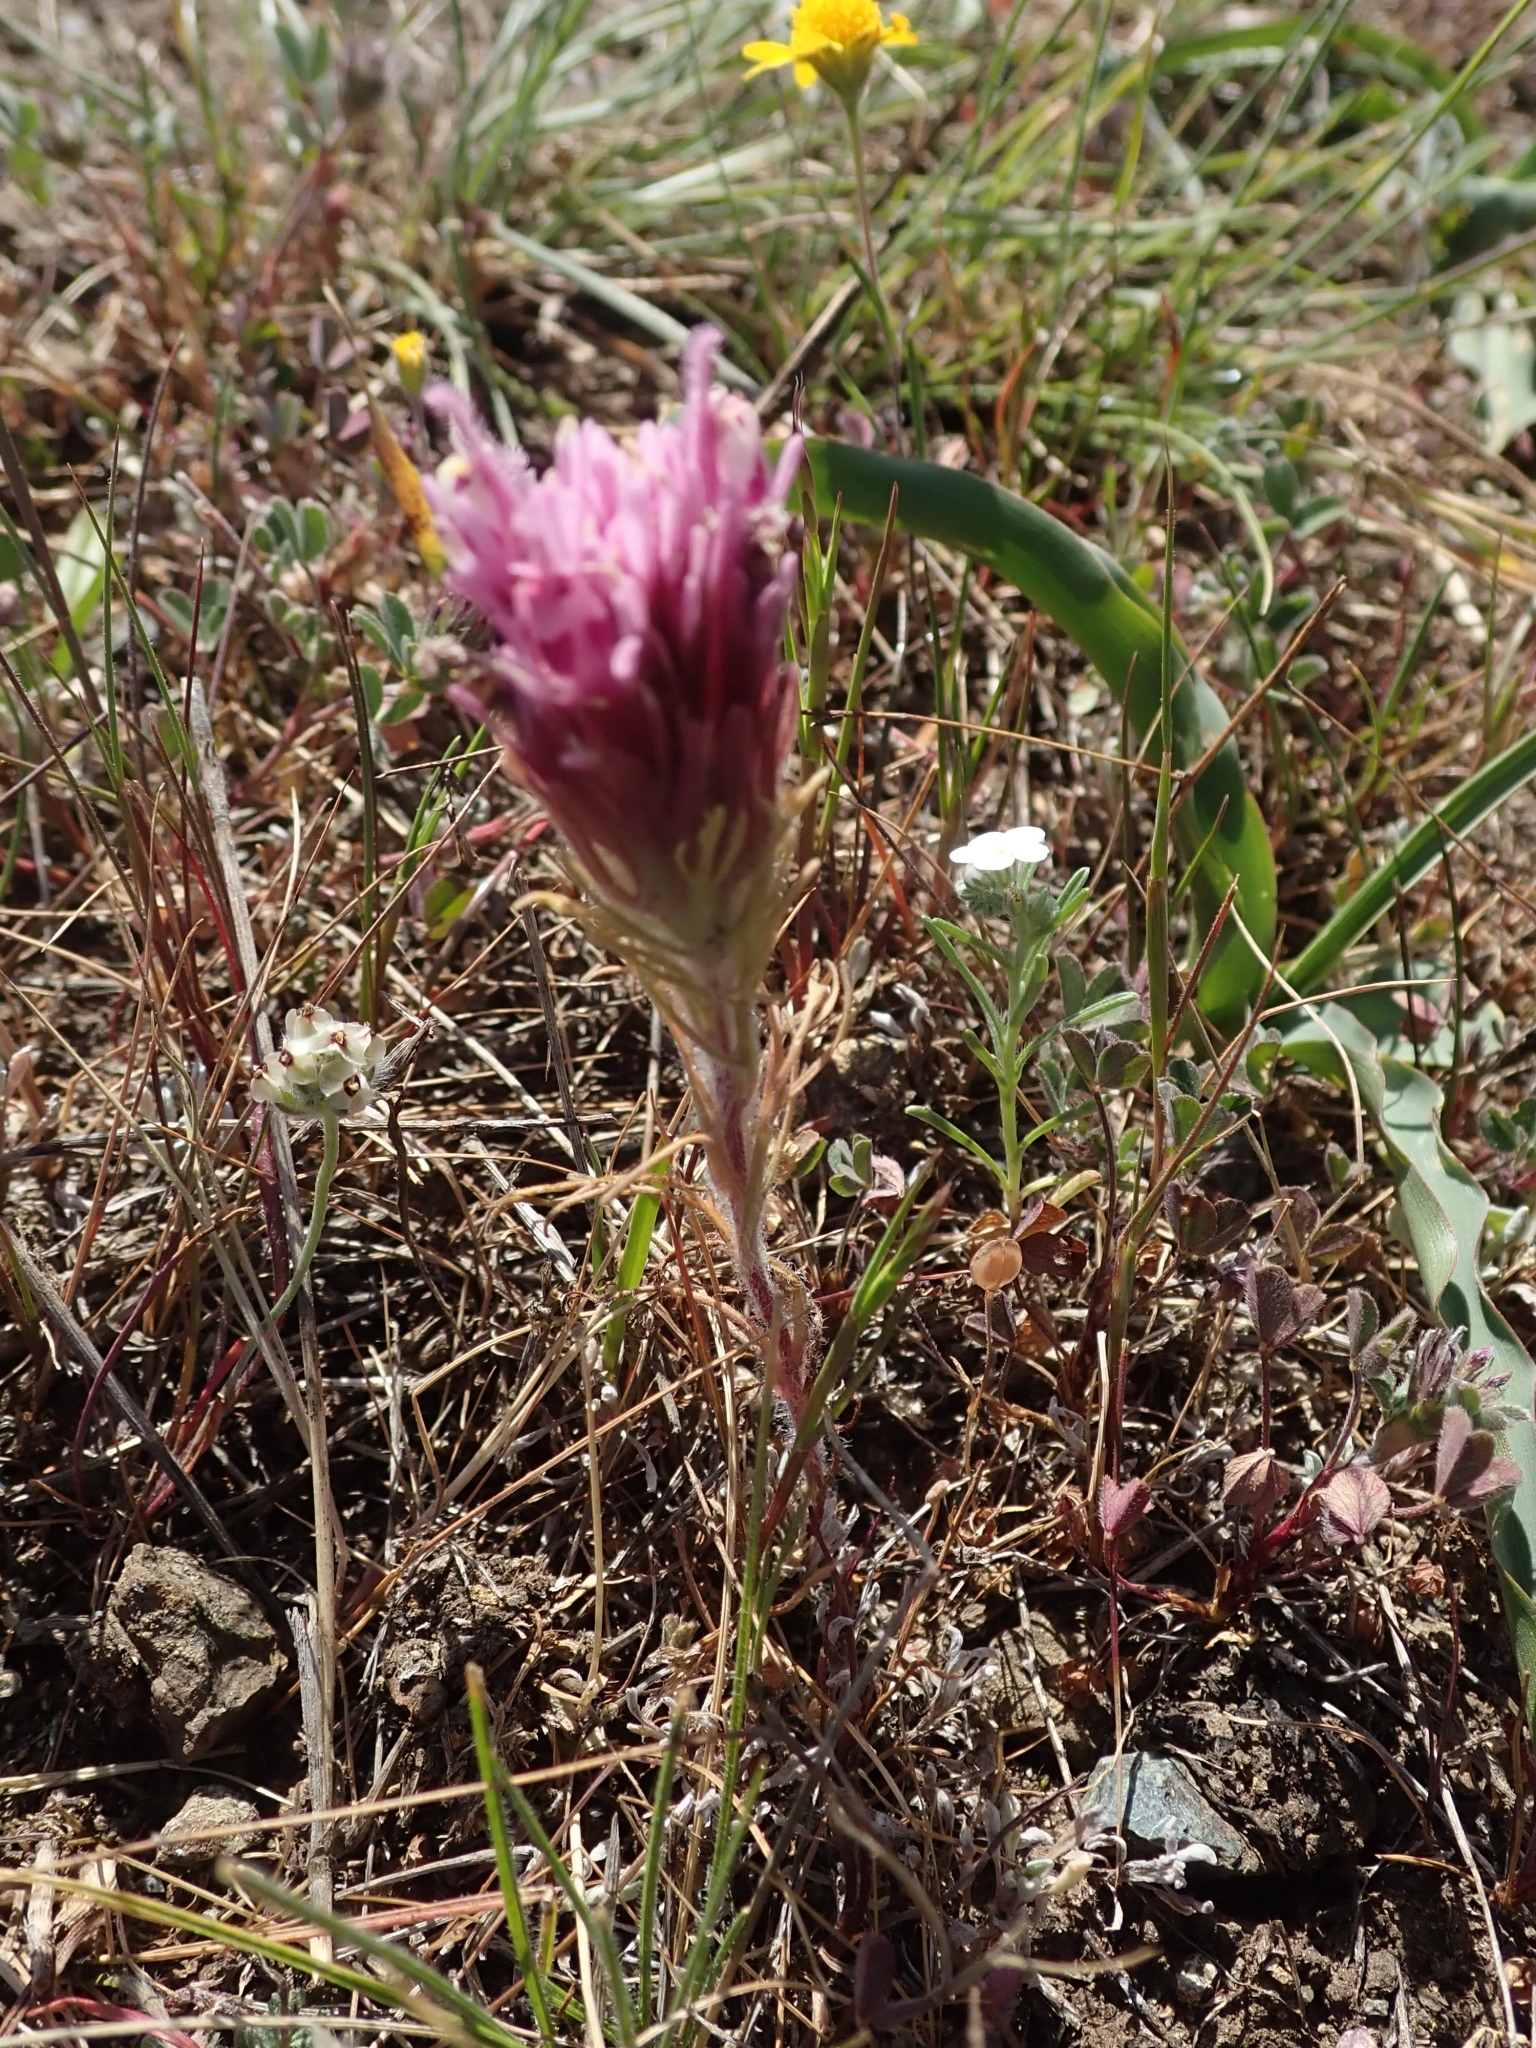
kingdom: Plantae
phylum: Tracheophyta
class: Magnoliopsida
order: Lamiales
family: Orobanchaceae
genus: Castilleja
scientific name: Castilleja exserta
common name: Purple owl-clover
